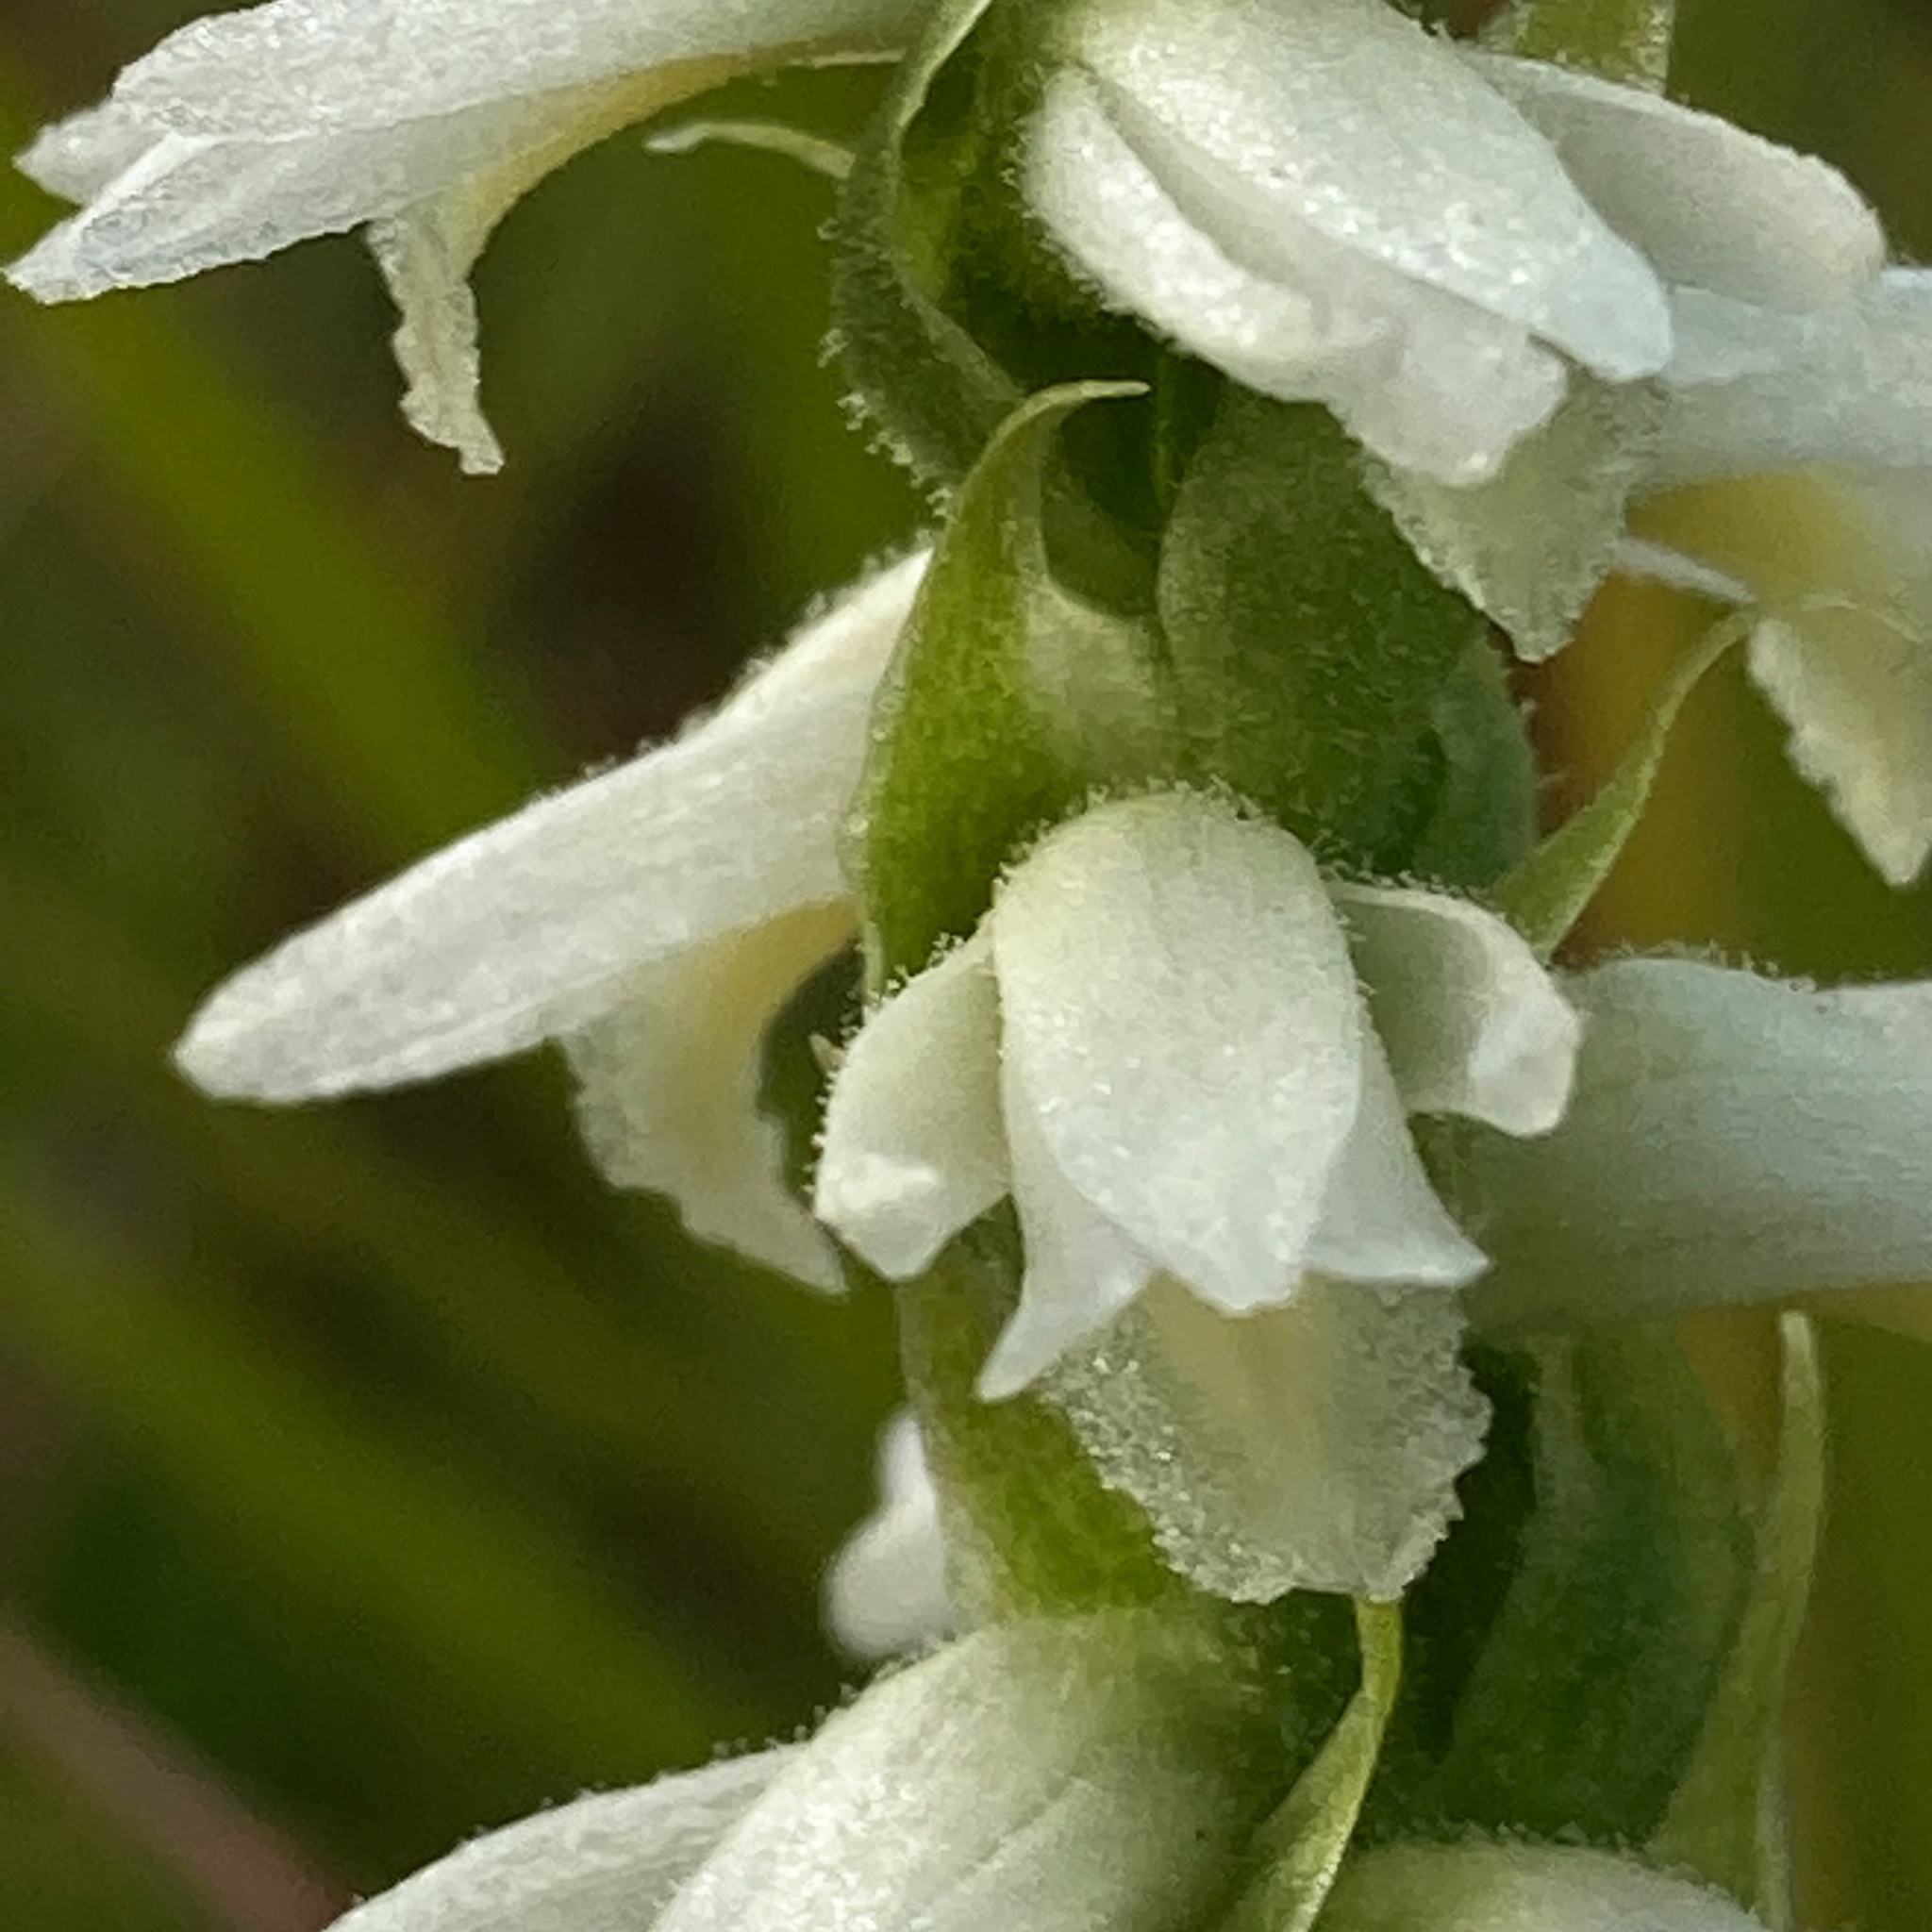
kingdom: Plantae
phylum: Tracheophyta
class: Liliopsida
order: Asparagales
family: Orchidaceae
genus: Spiranthes
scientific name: Spiranthes magnicamporum
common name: Great plains ladies'-tresses
